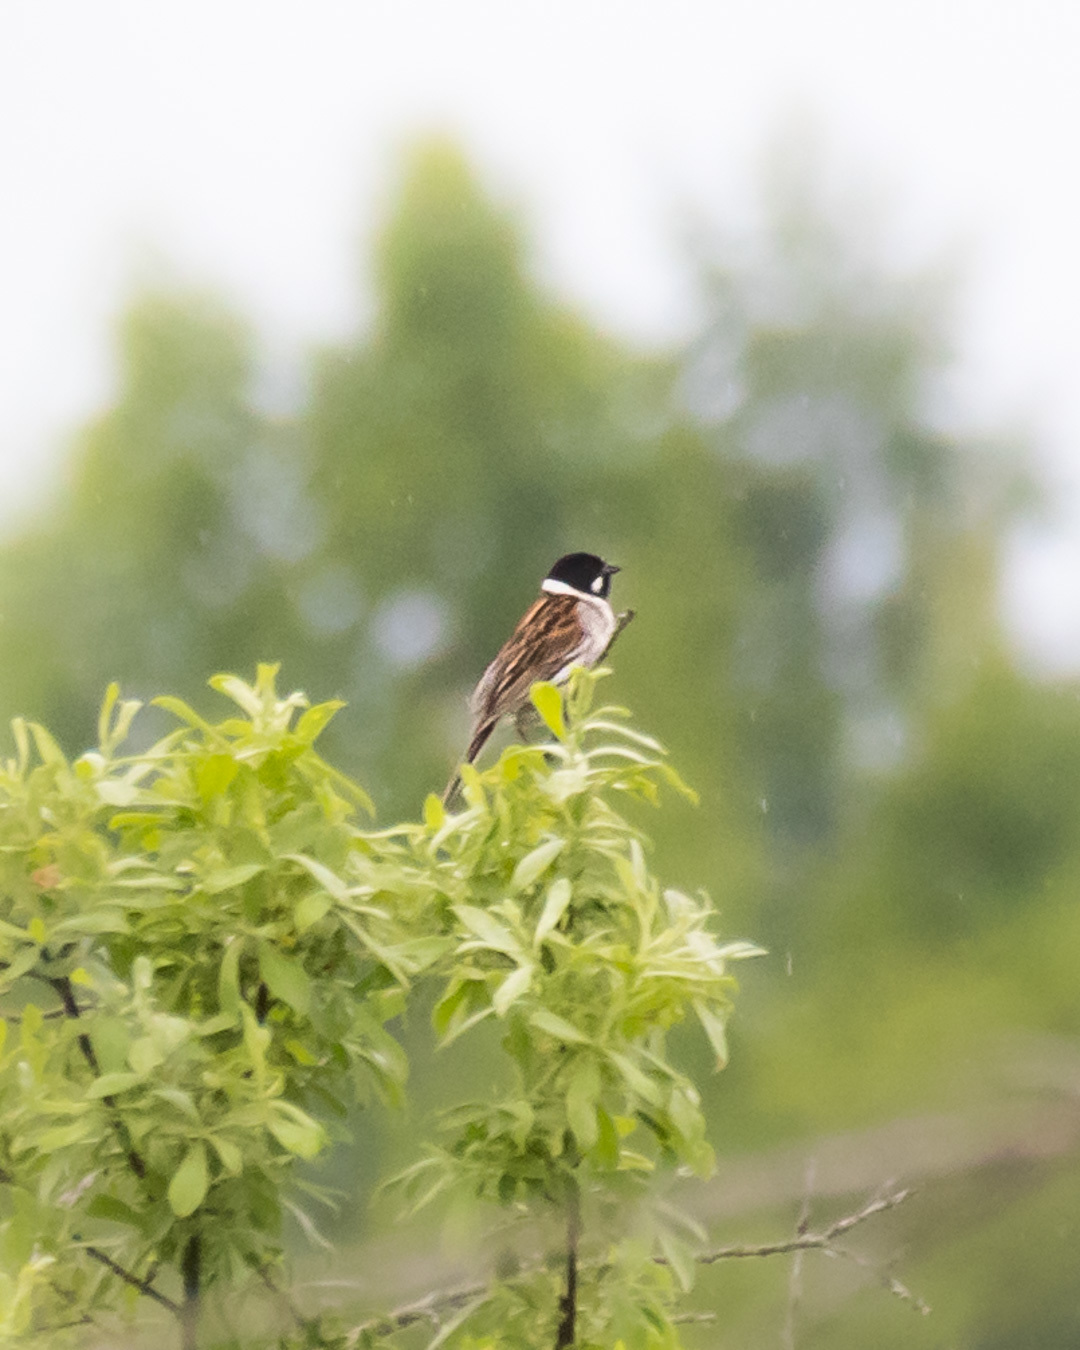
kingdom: Animalia
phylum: Chordata
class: Aves
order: Passeriformes
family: Emberizidae
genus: Emberiza
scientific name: Emberiza schoeniclus
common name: Reed bunting
